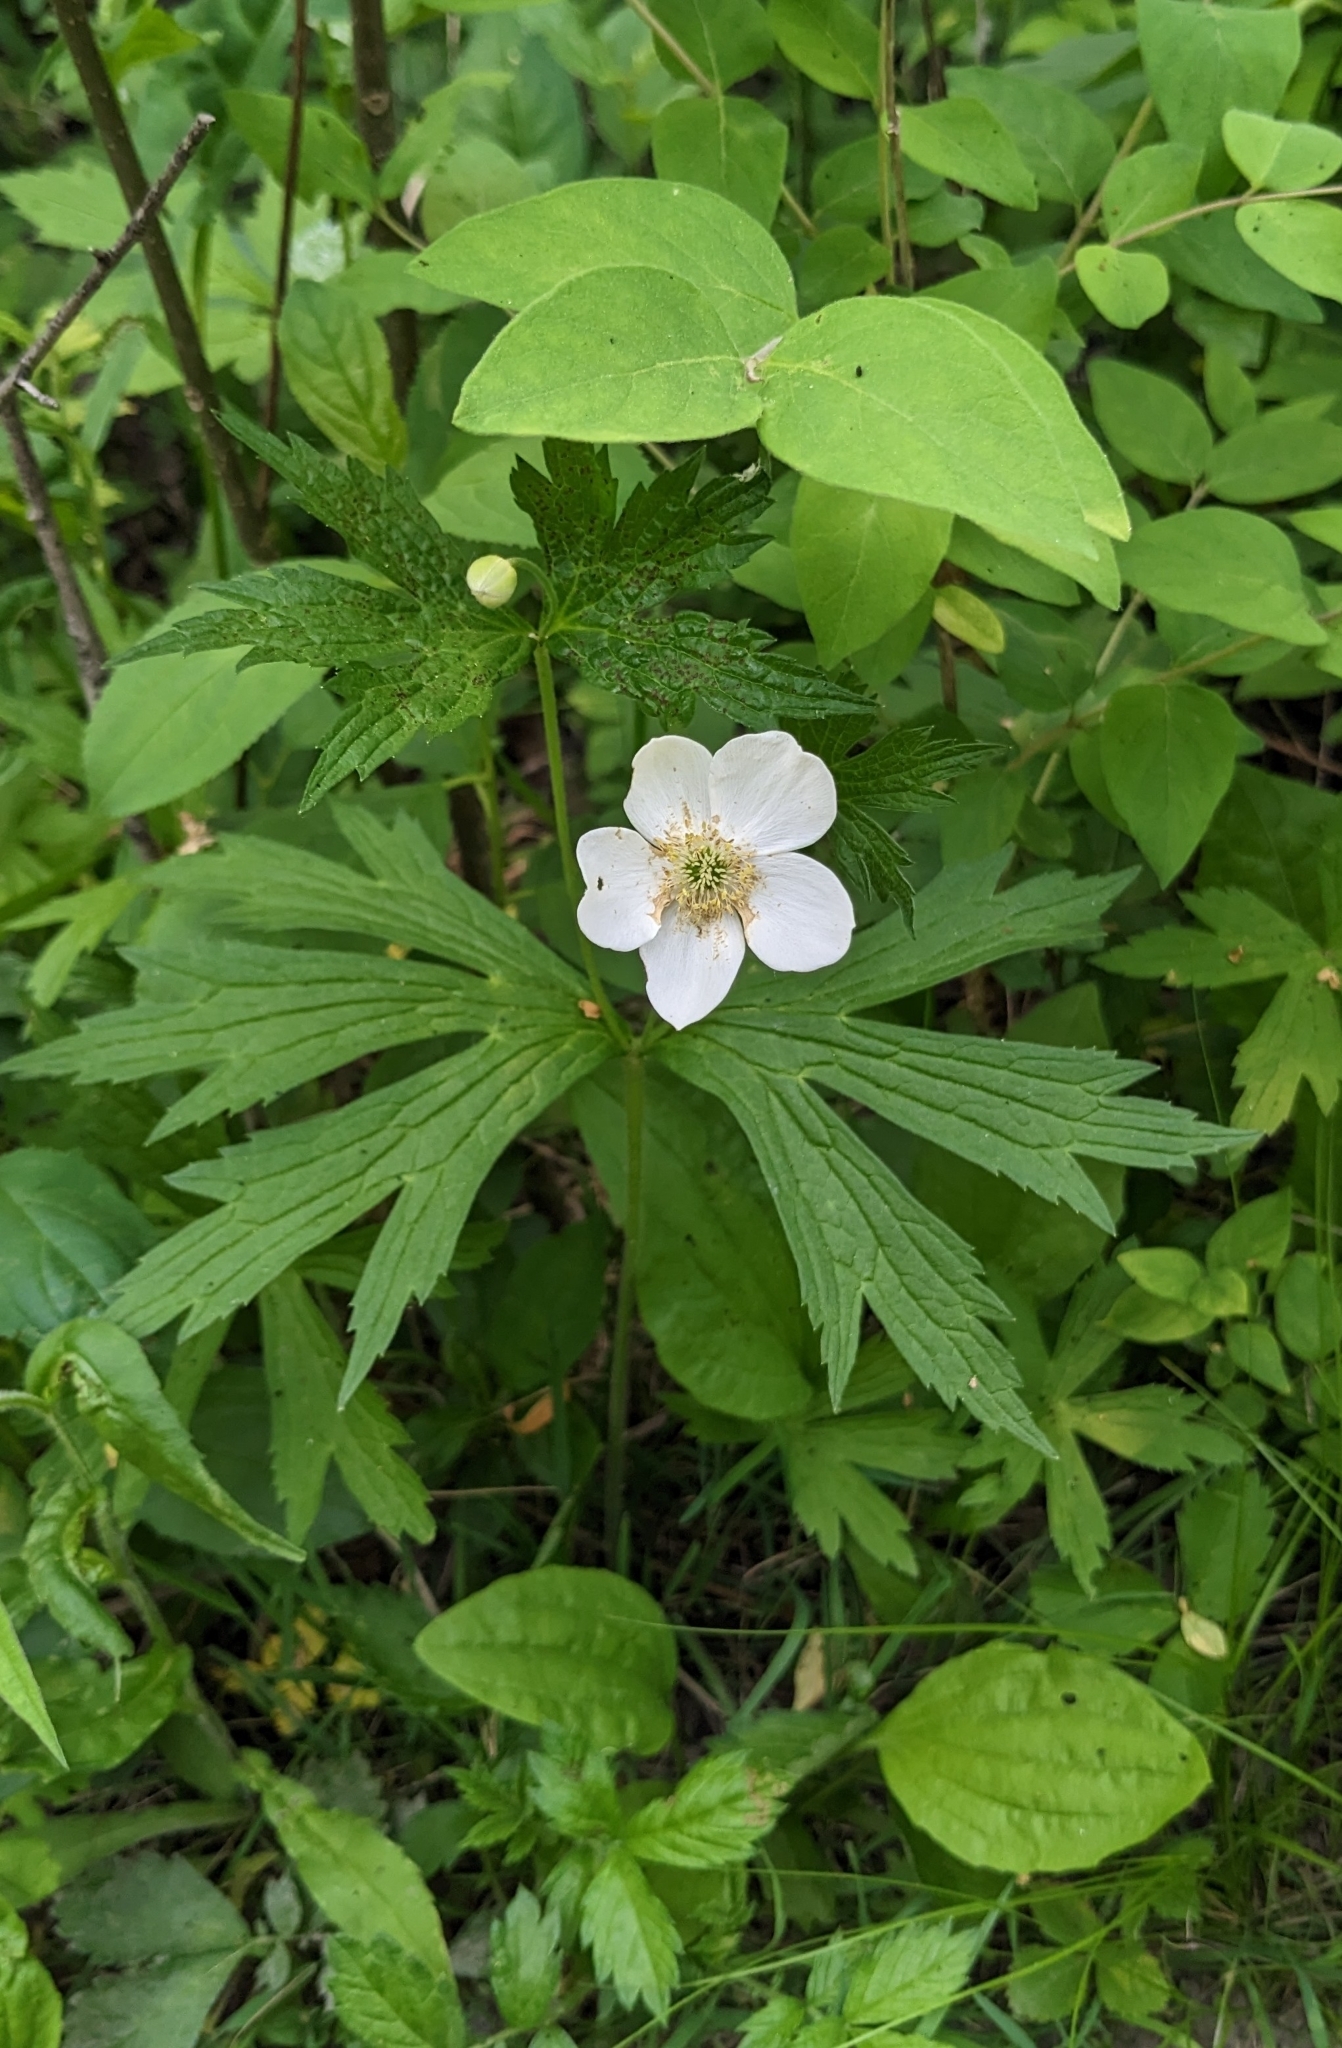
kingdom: Plantae
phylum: Tracheophyta
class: Magnoliopsida
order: Ranunculales
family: Ranunculaceae
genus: Anemonastrum
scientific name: Anemonastrum canadense
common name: Canada anemone
